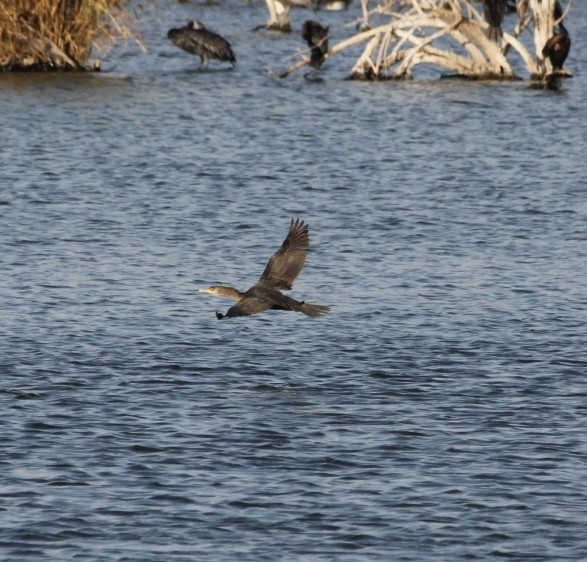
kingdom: Animalia
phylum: Chordata
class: Aves
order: Suliformes
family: Phalacrocoracidae
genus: Phalacrocorax
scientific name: Phalacrocorax auritus
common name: Double-crested cormorant
